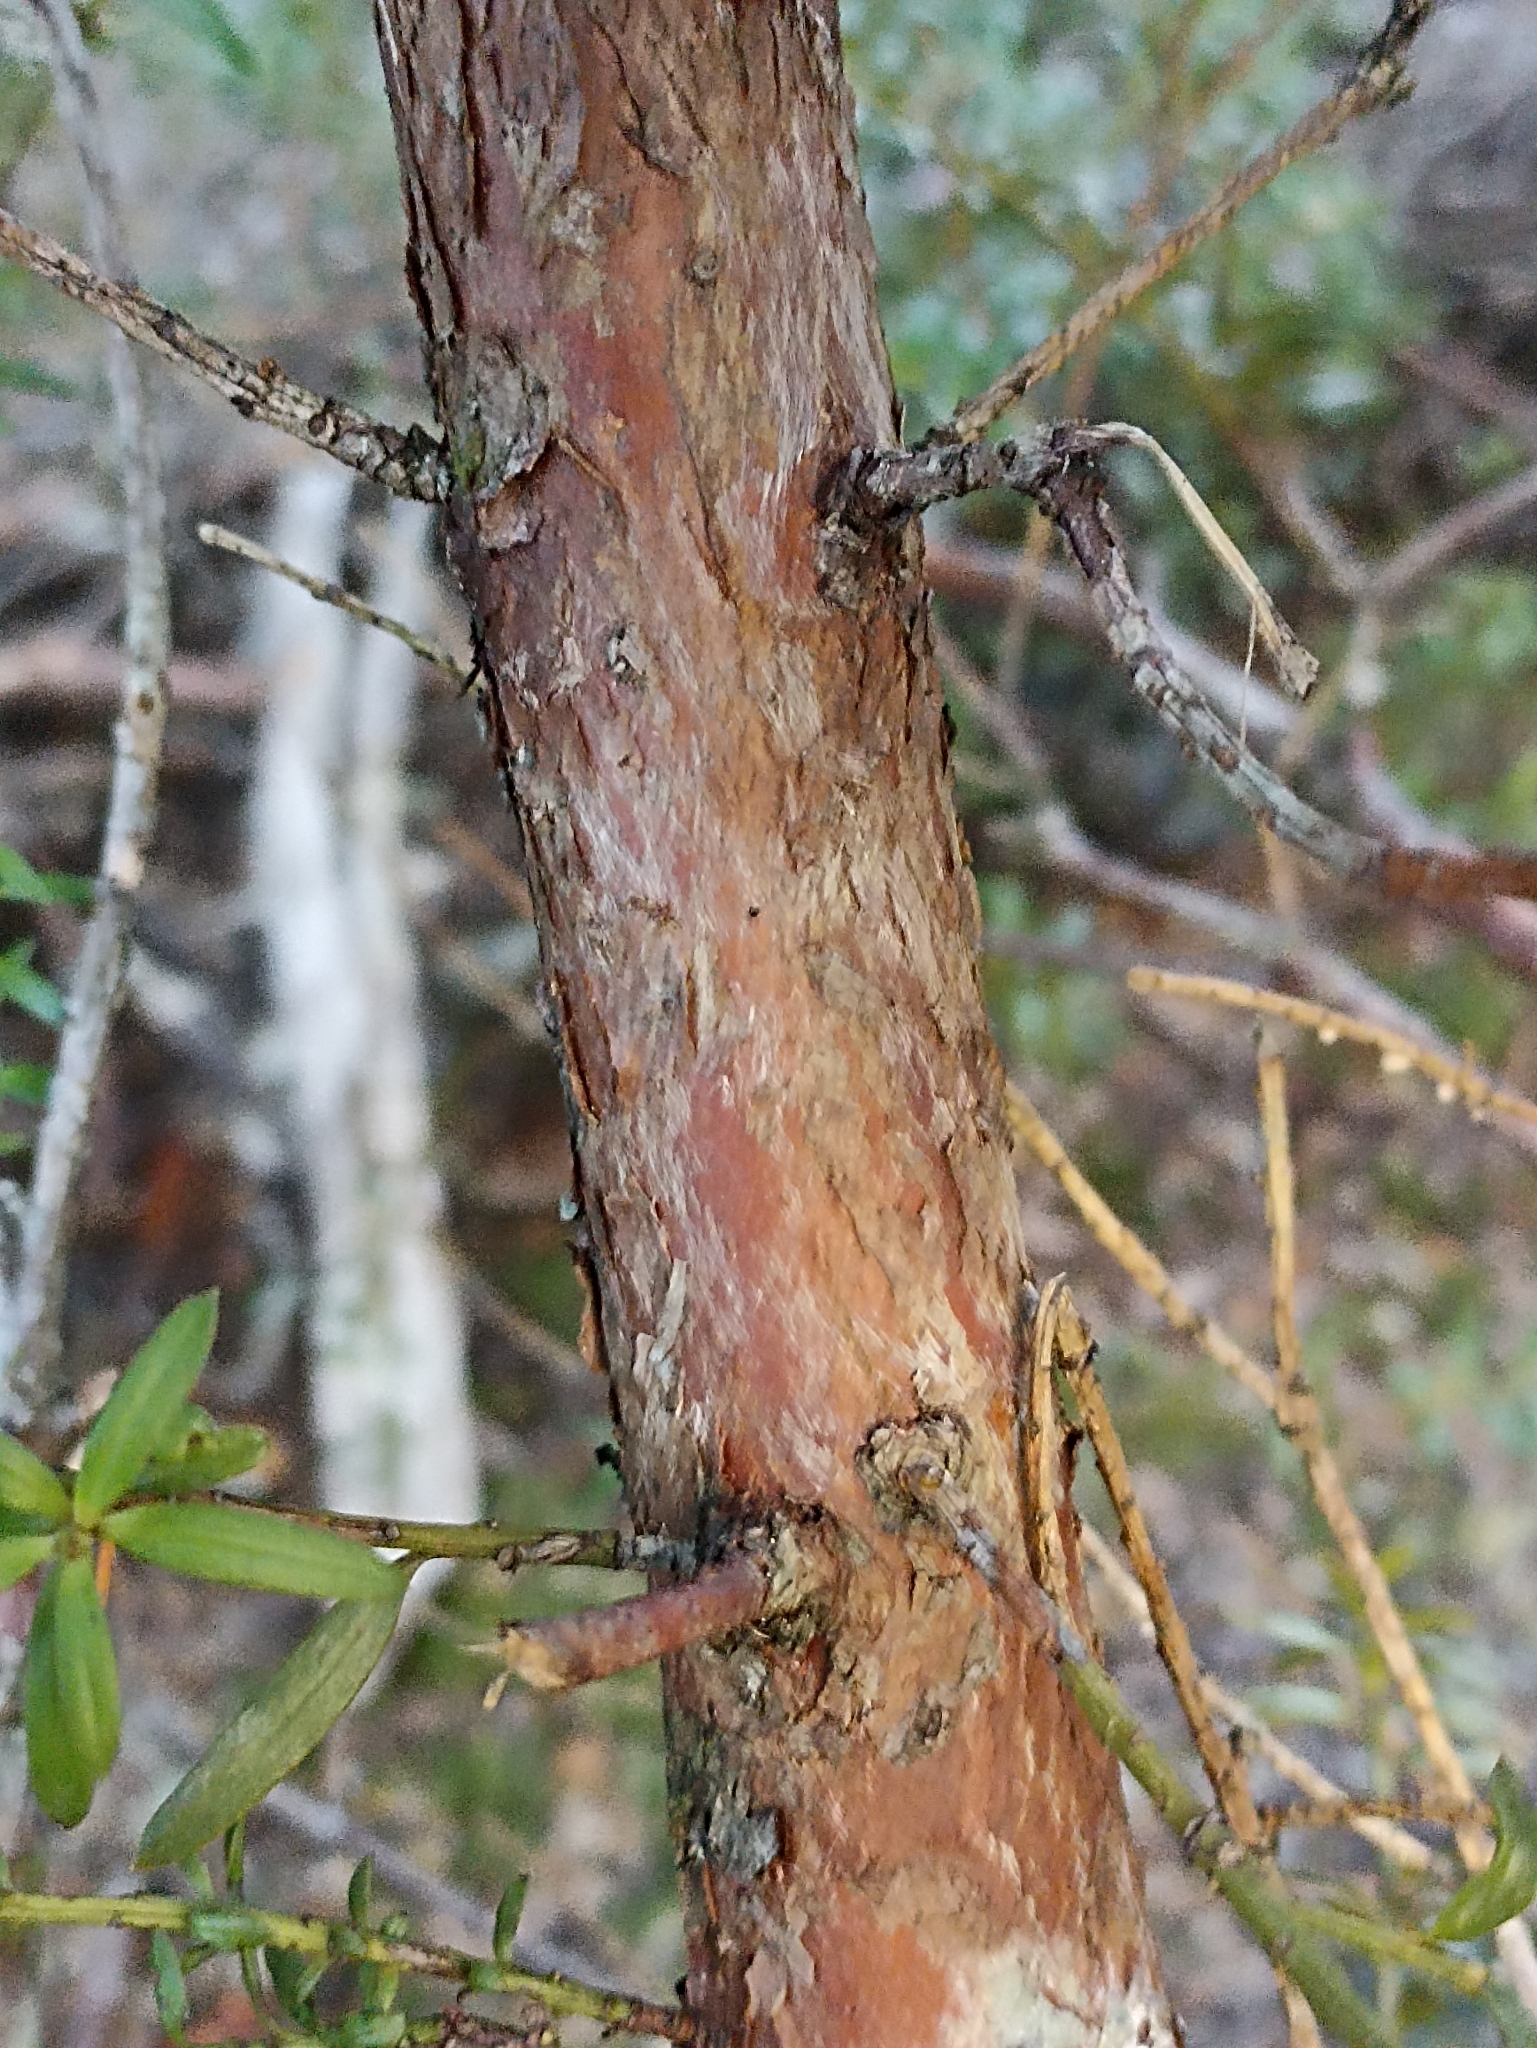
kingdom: Plantae
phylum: Tracheophyta
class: Pinopsida
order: Pinales
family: Podocarpaceae
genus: Podocarpus
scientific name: Podocarpus laetus
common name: Hall's totara
